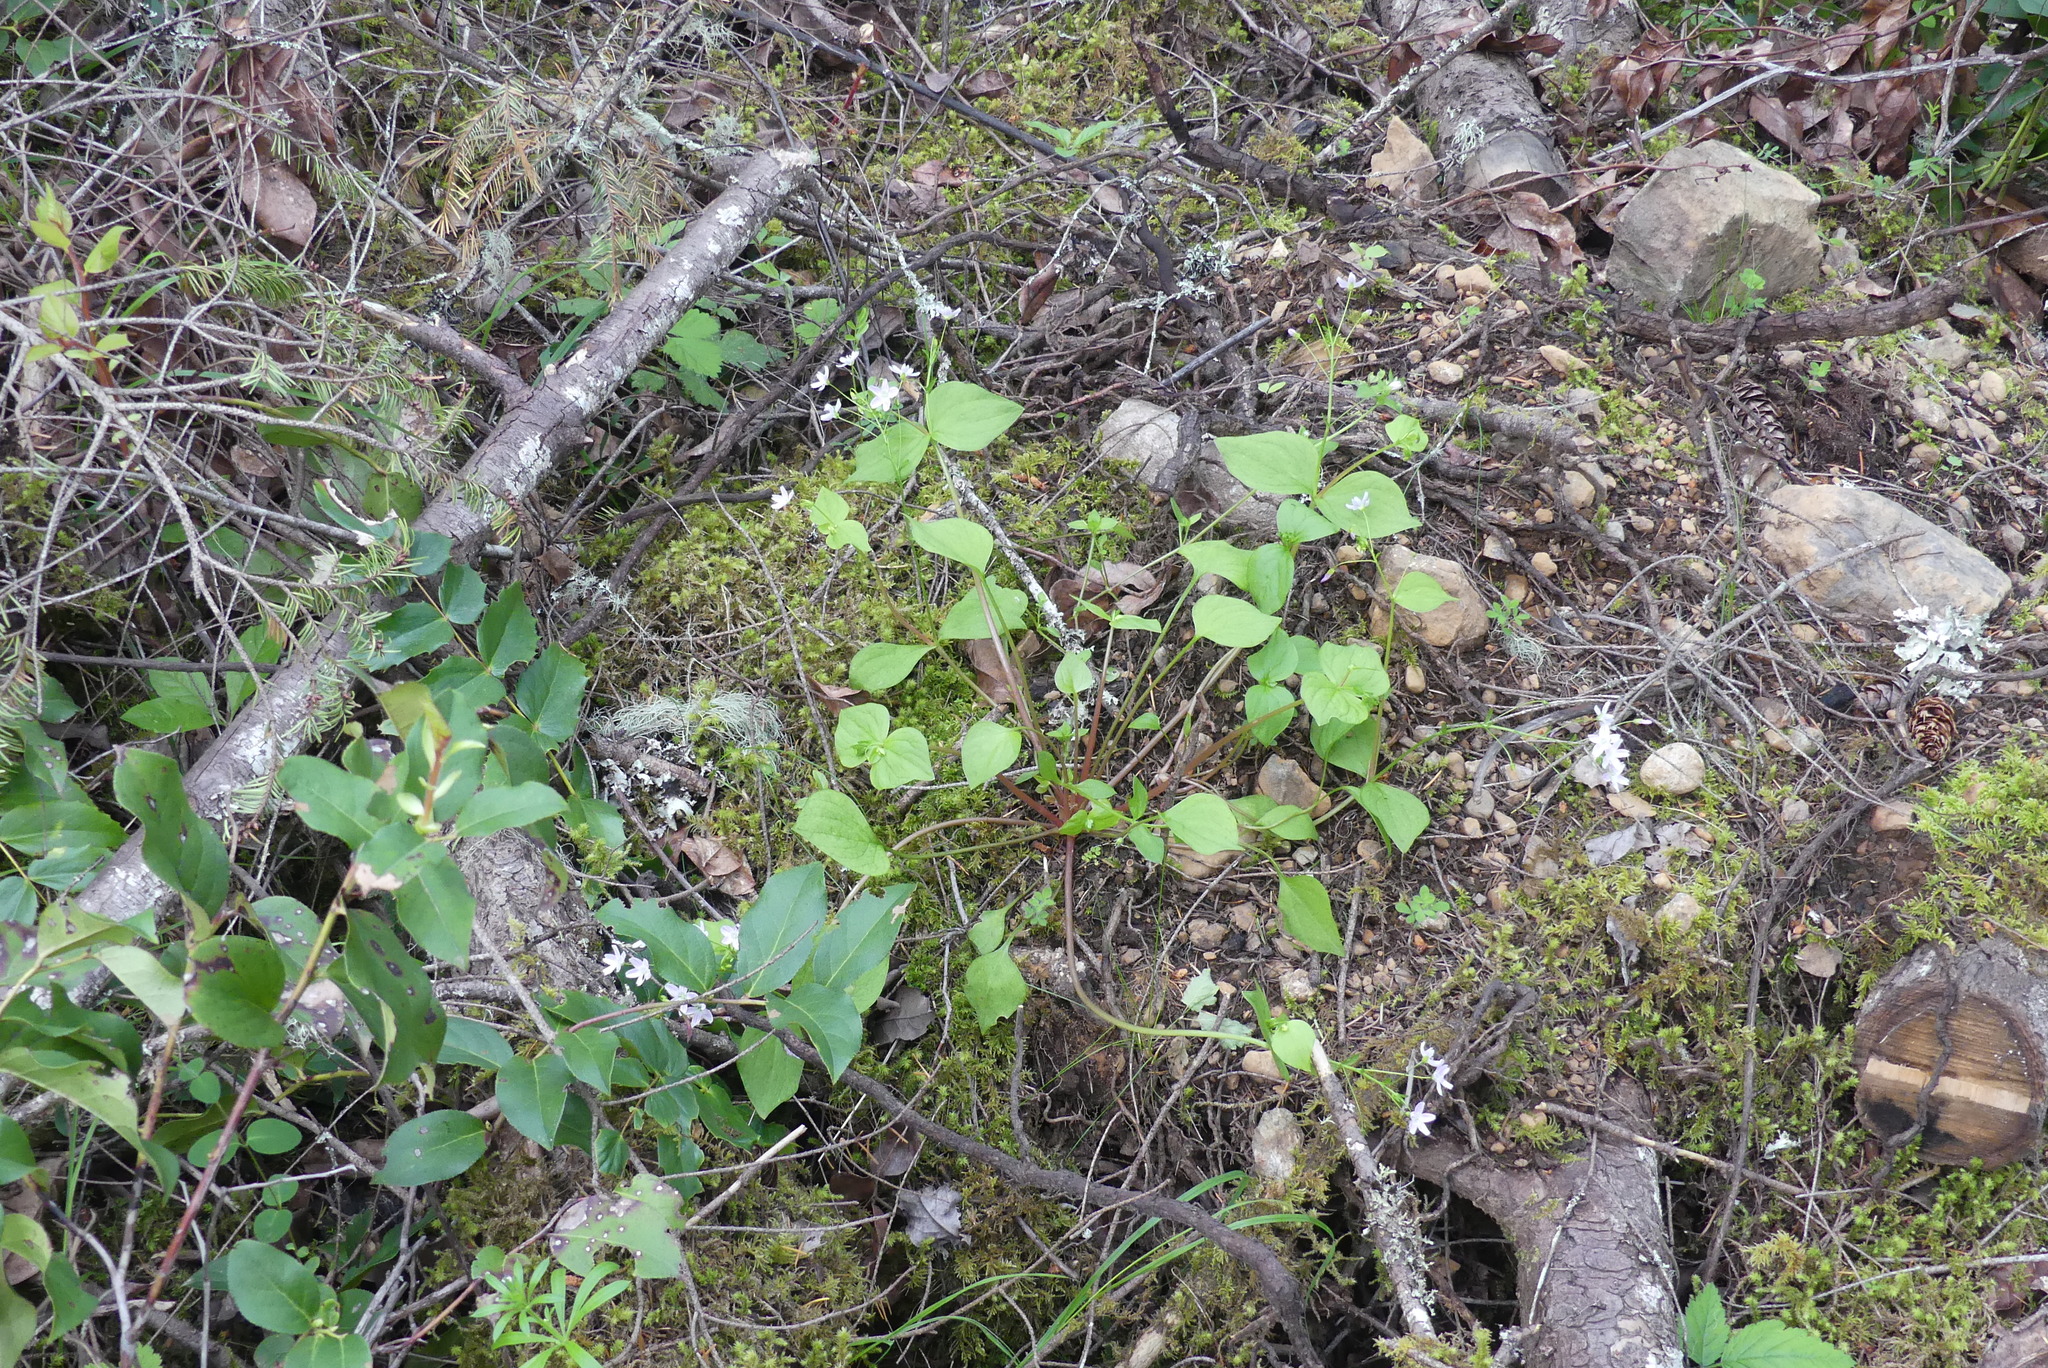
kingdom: Plantae
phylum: Tracheophyta
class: Magnoliopsida
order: Caryophyllales
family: Montiaceae
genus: Claytonia
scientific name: Claytonia sibirica
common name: Pink purslane
